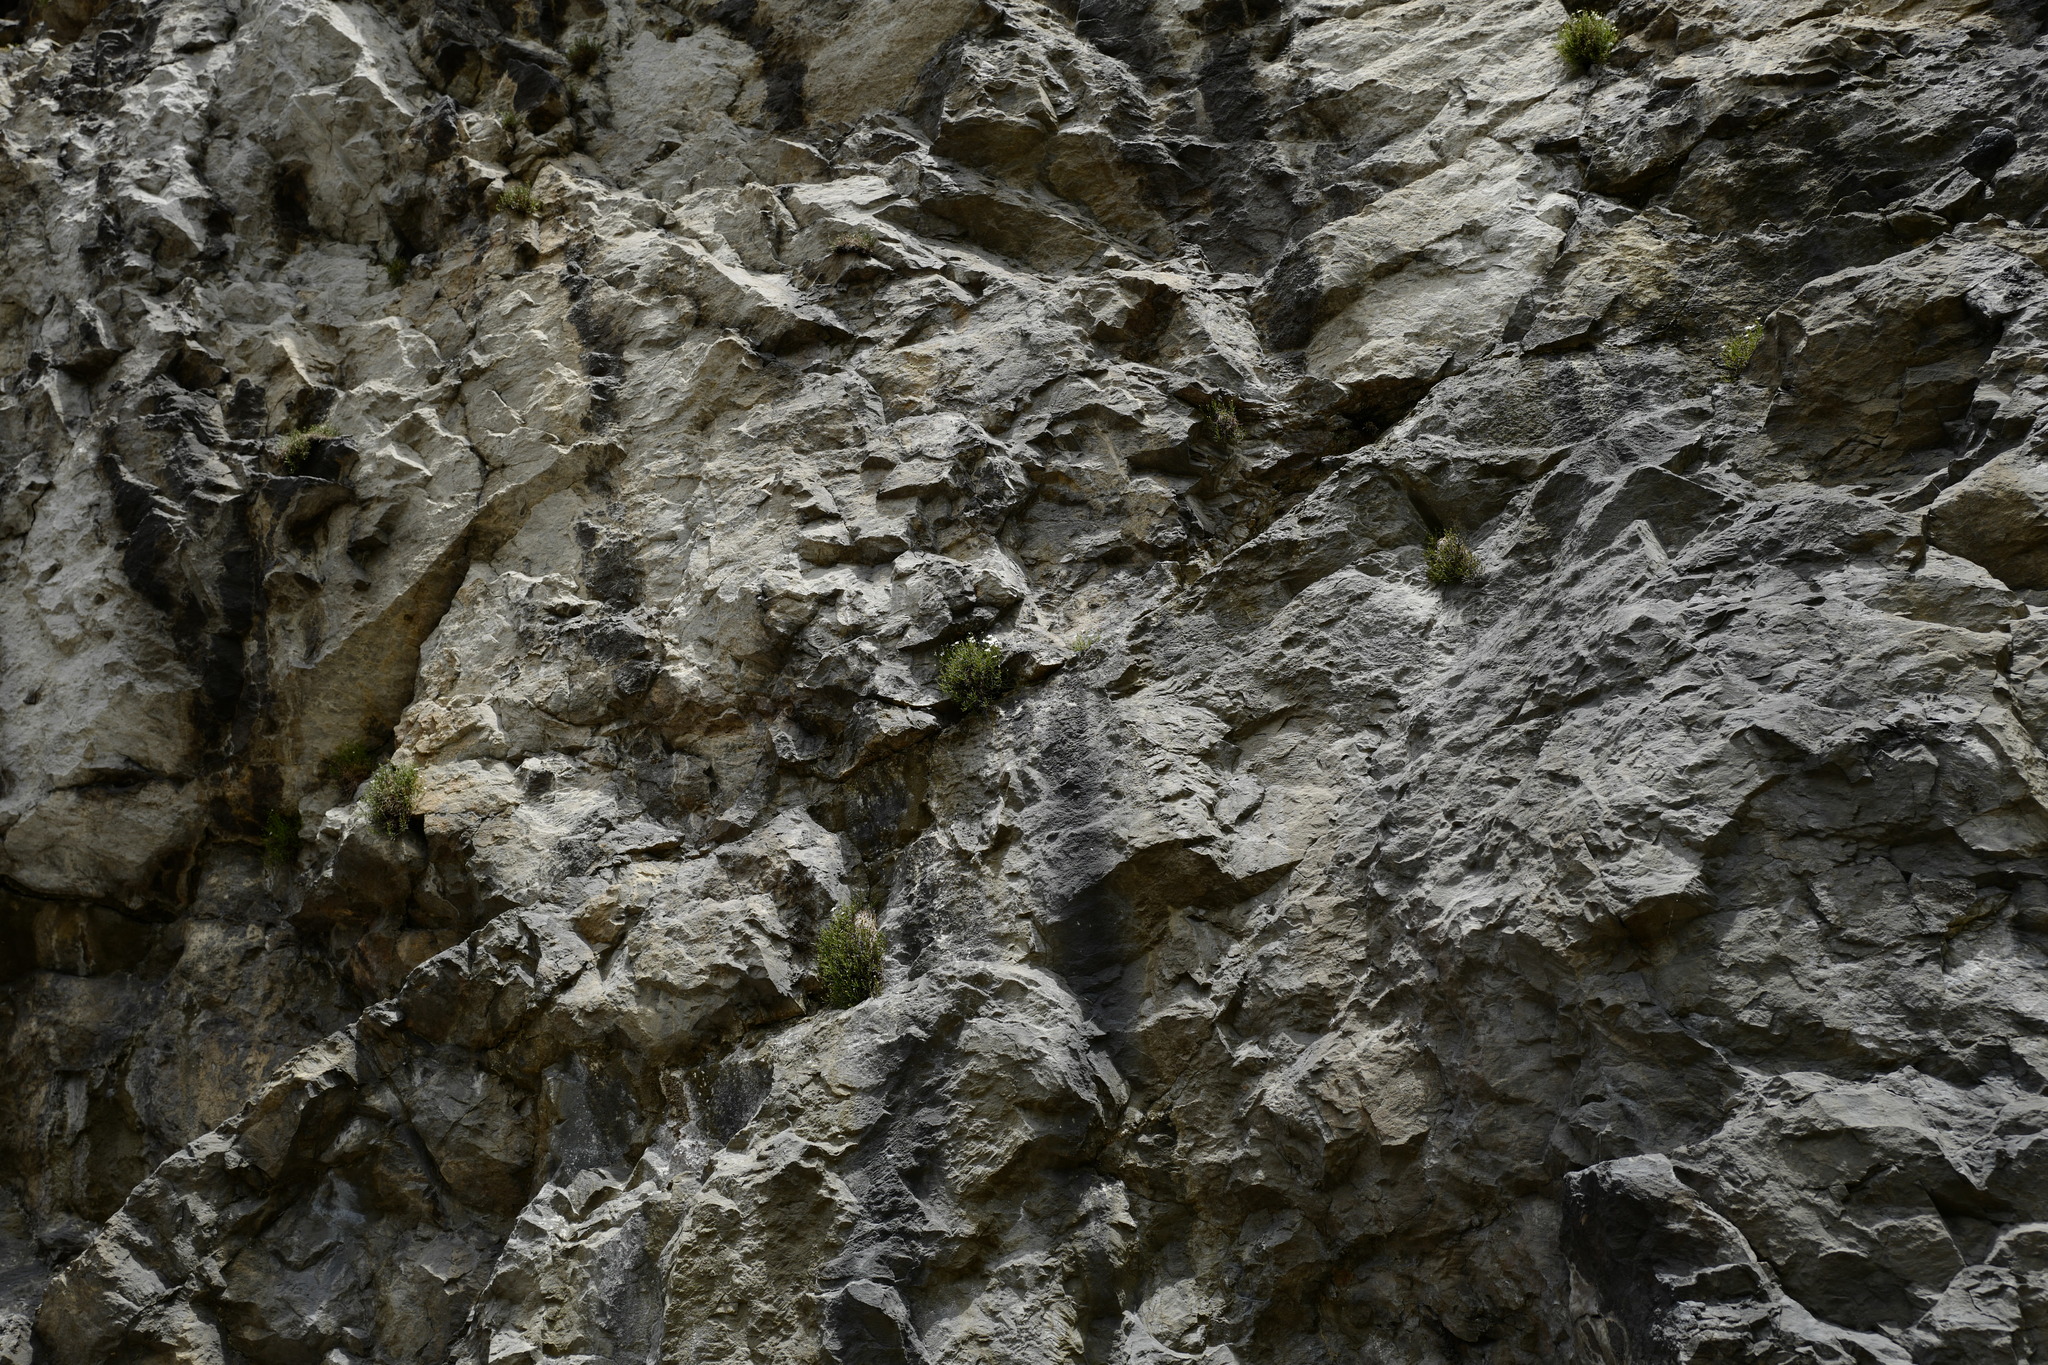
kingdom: Plantae
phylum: Tracheophyta
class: Magnoliopsida
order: Caryophyllales
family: Caryophyllaceae
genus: Moehringia
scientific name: Moehringia bavarica
